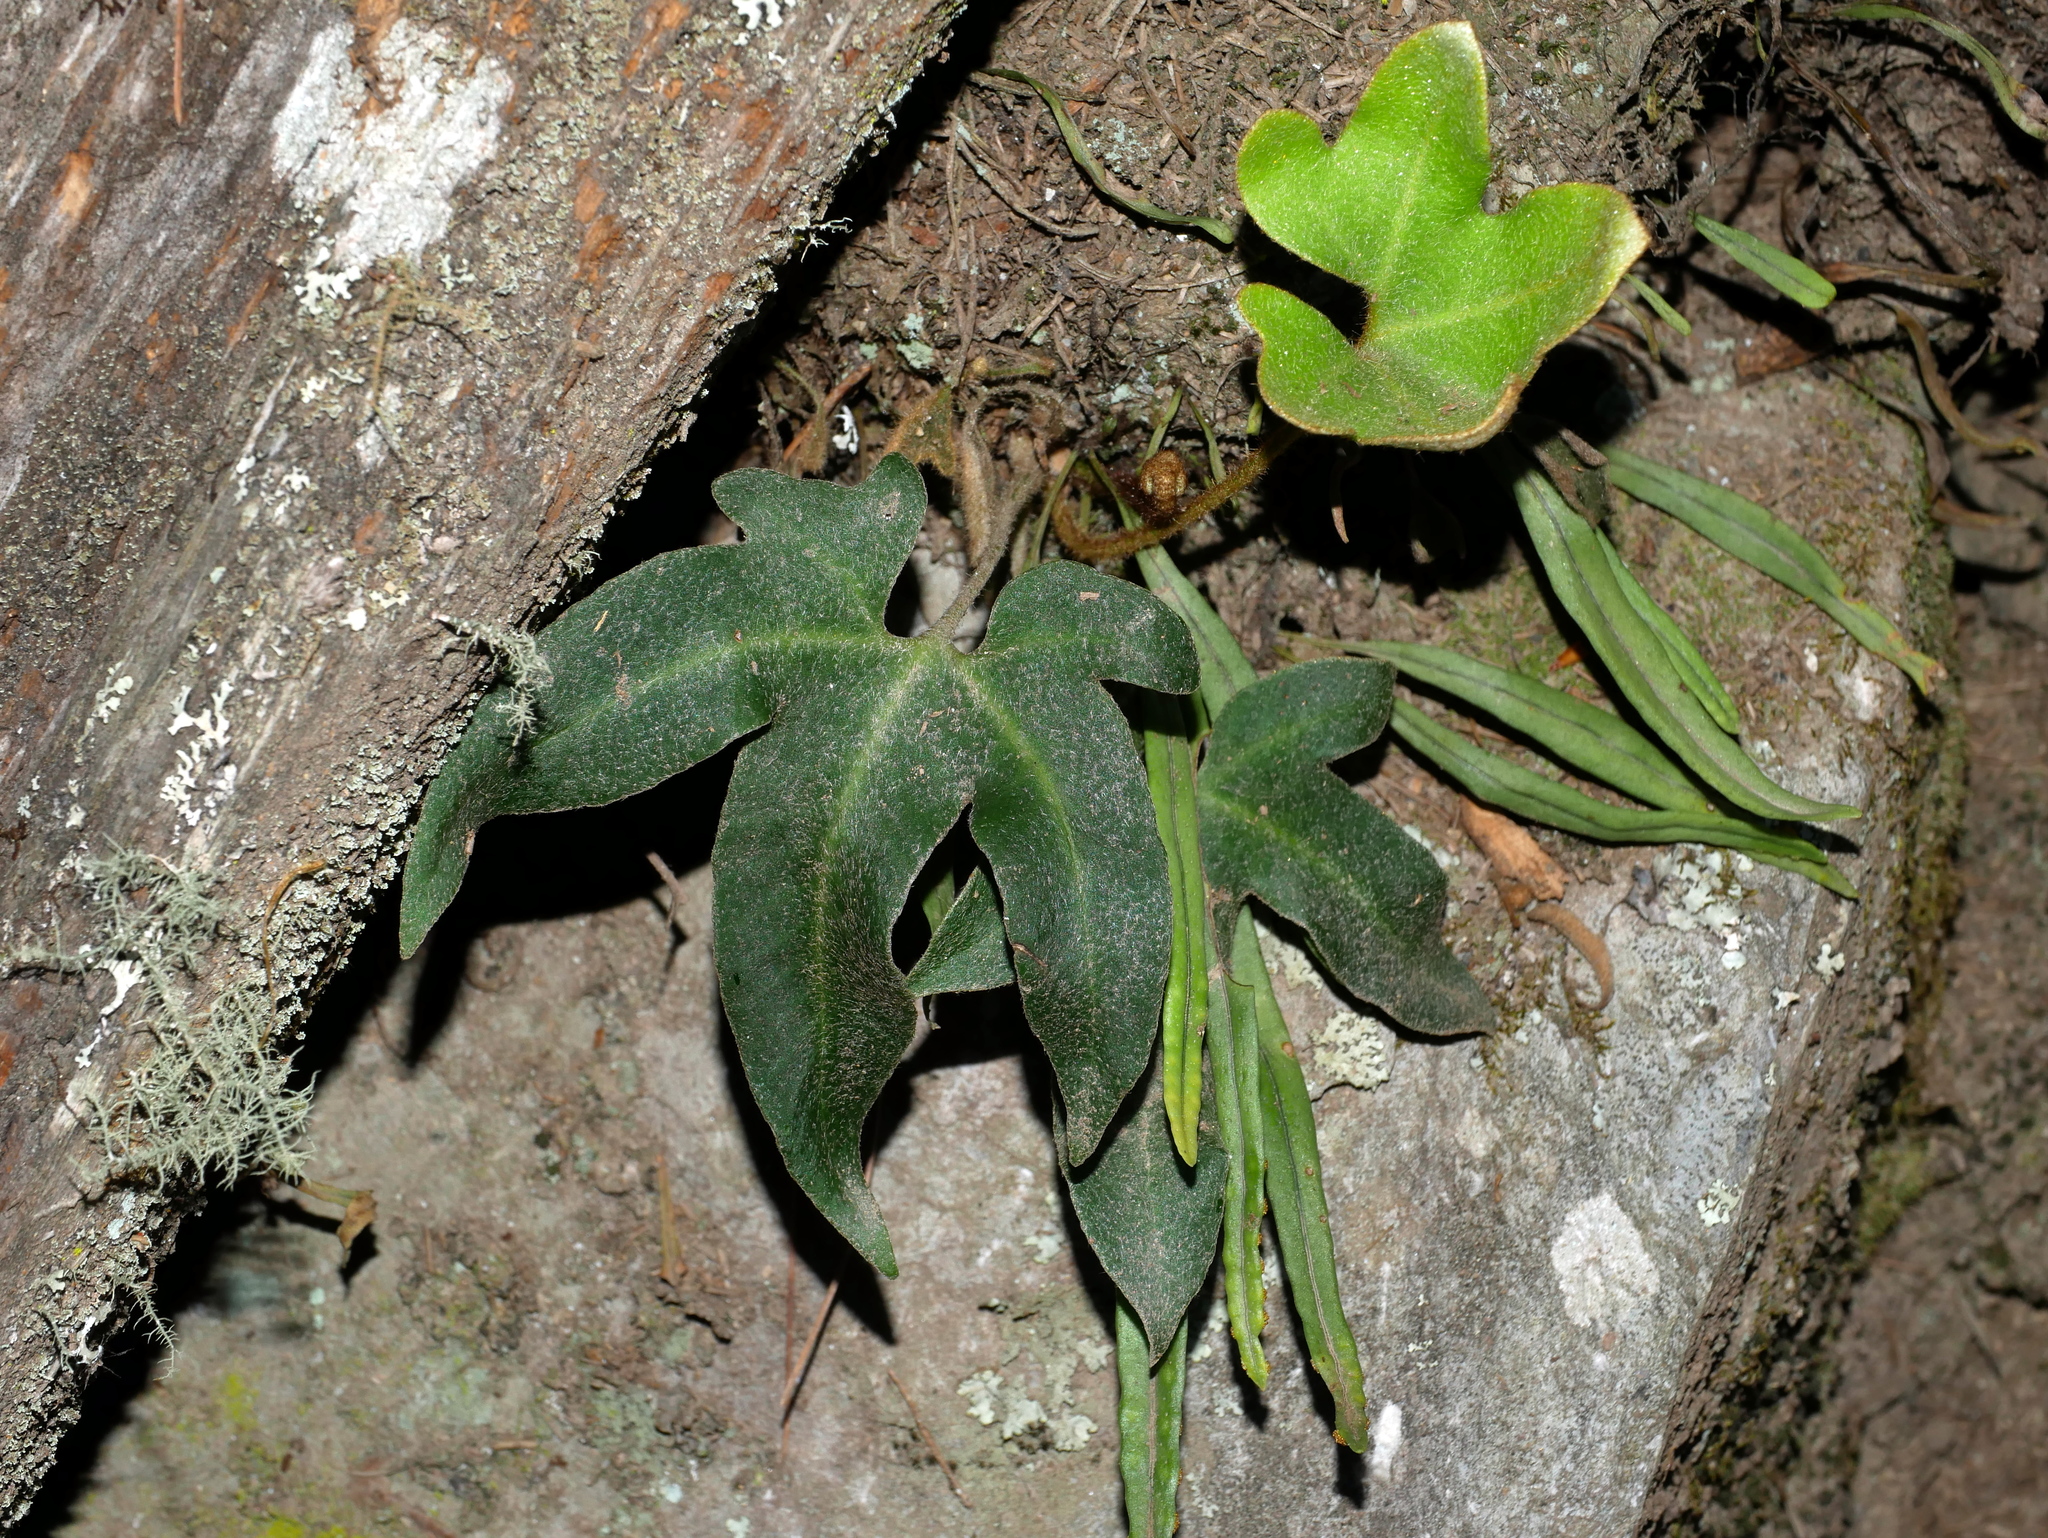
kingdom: Plantae
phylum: Tracheophyta
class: Polypodiopsida
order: Polypodiales
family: Polypodiaceae
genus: Pyrrosia
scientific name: Pyrrosia polydactyla
